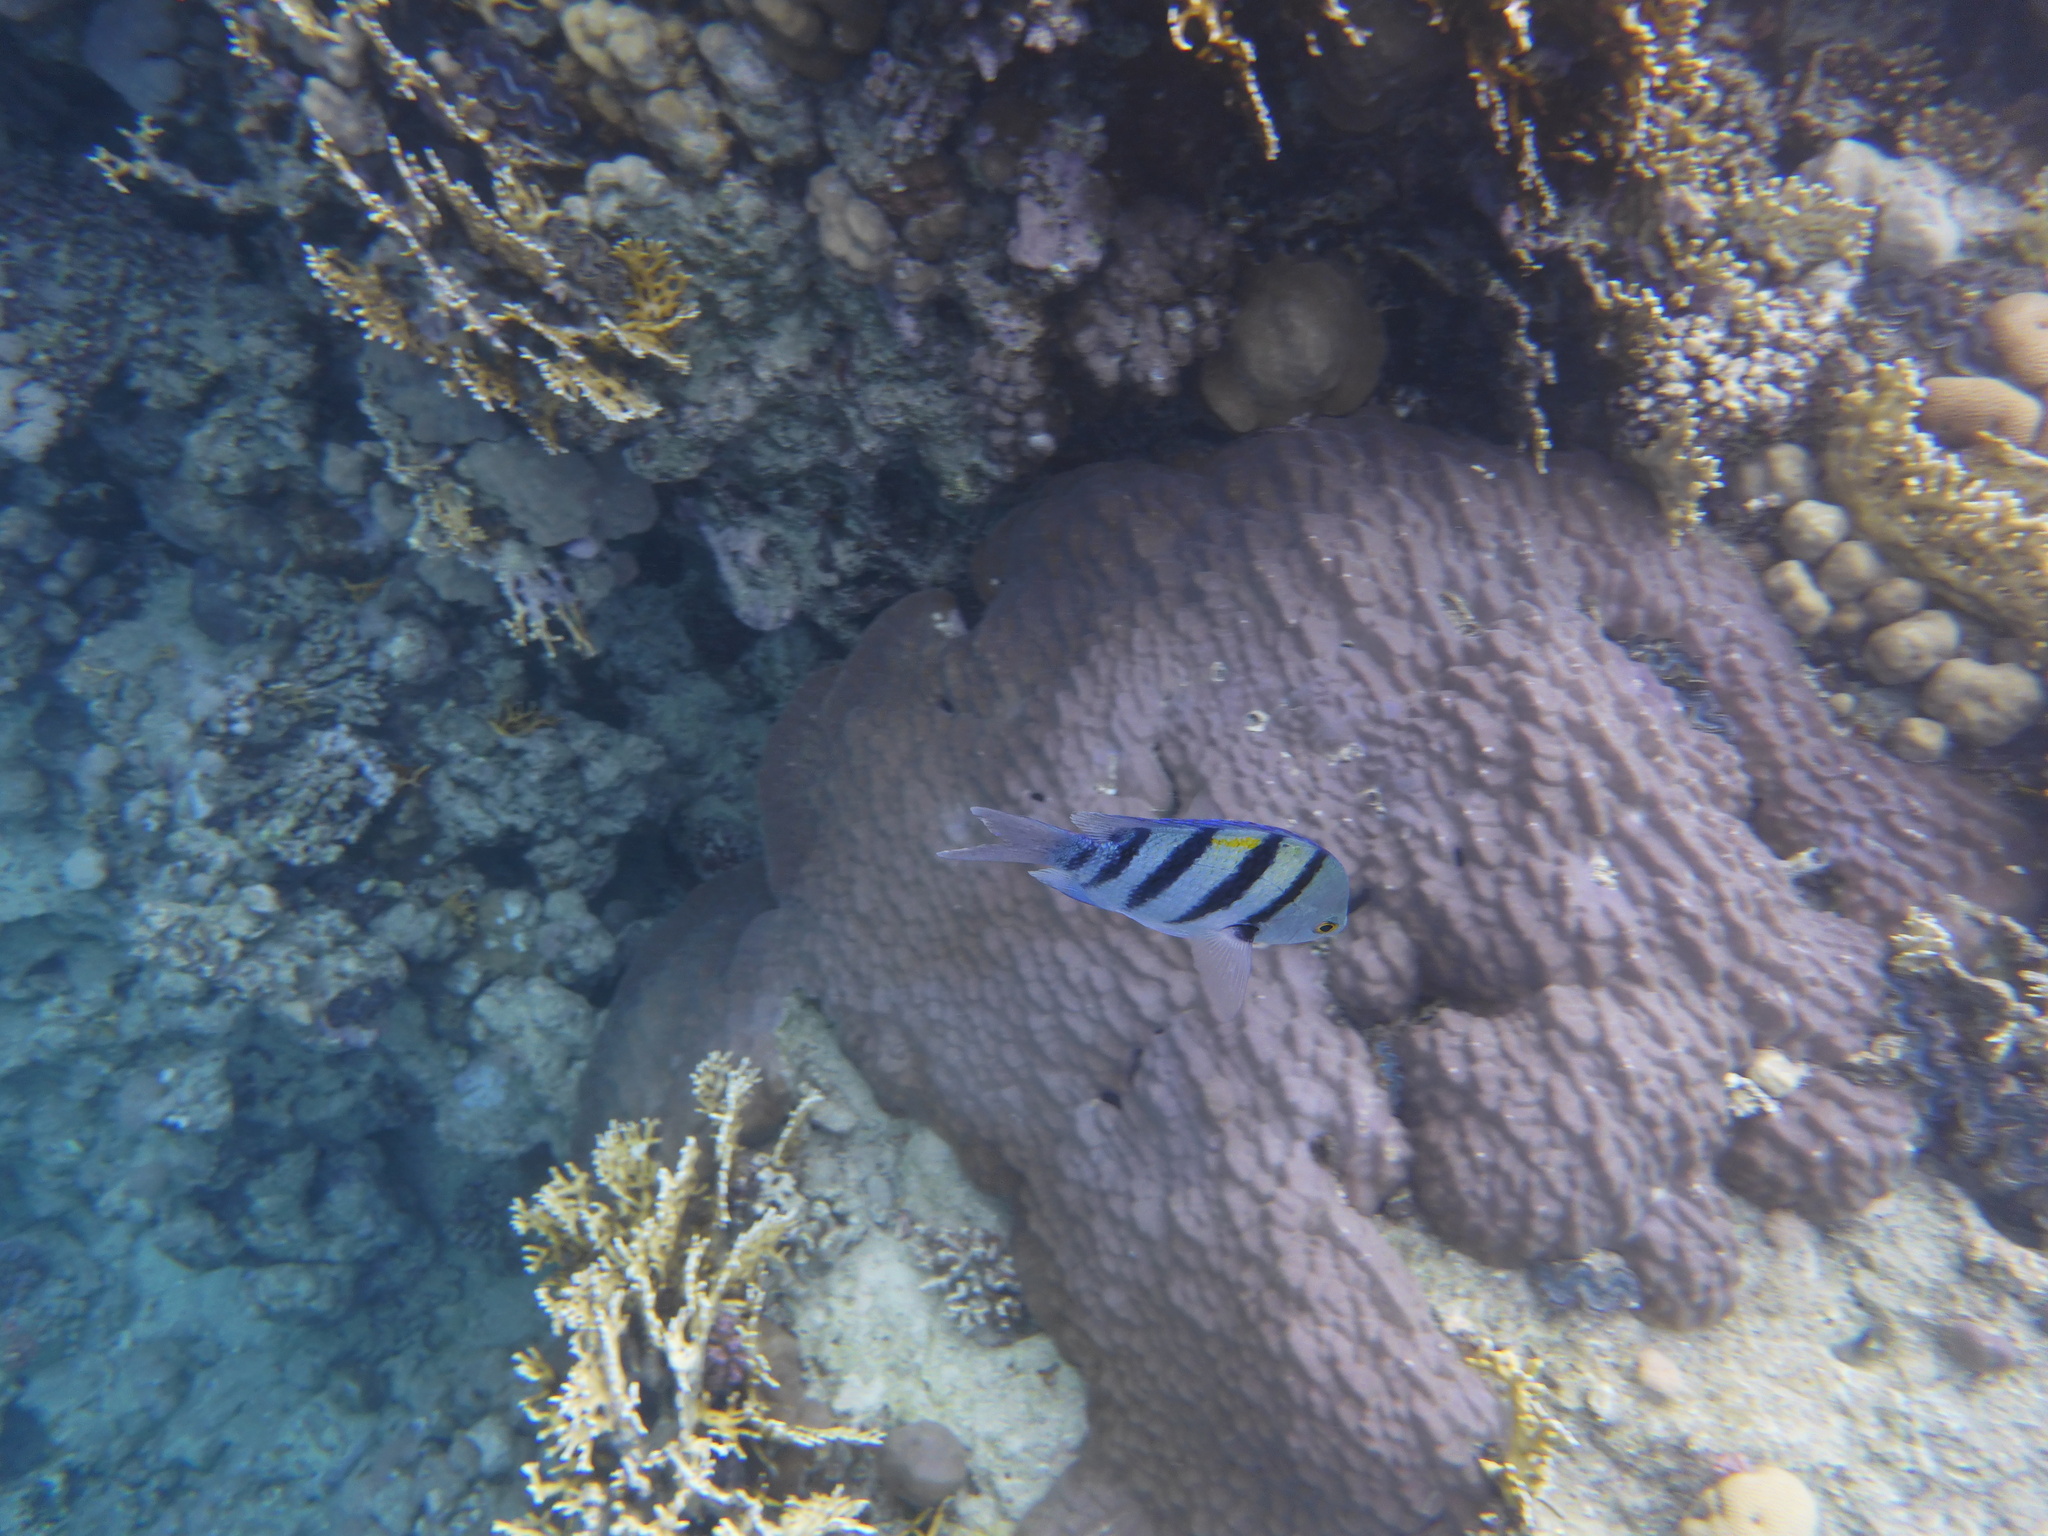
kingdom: Animalia
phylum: Chordata
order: Perciformes
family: Pomacentridae
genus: Abudefduf
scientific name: Abudefduf vaigiensis
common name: Indo-pacific sergeant
